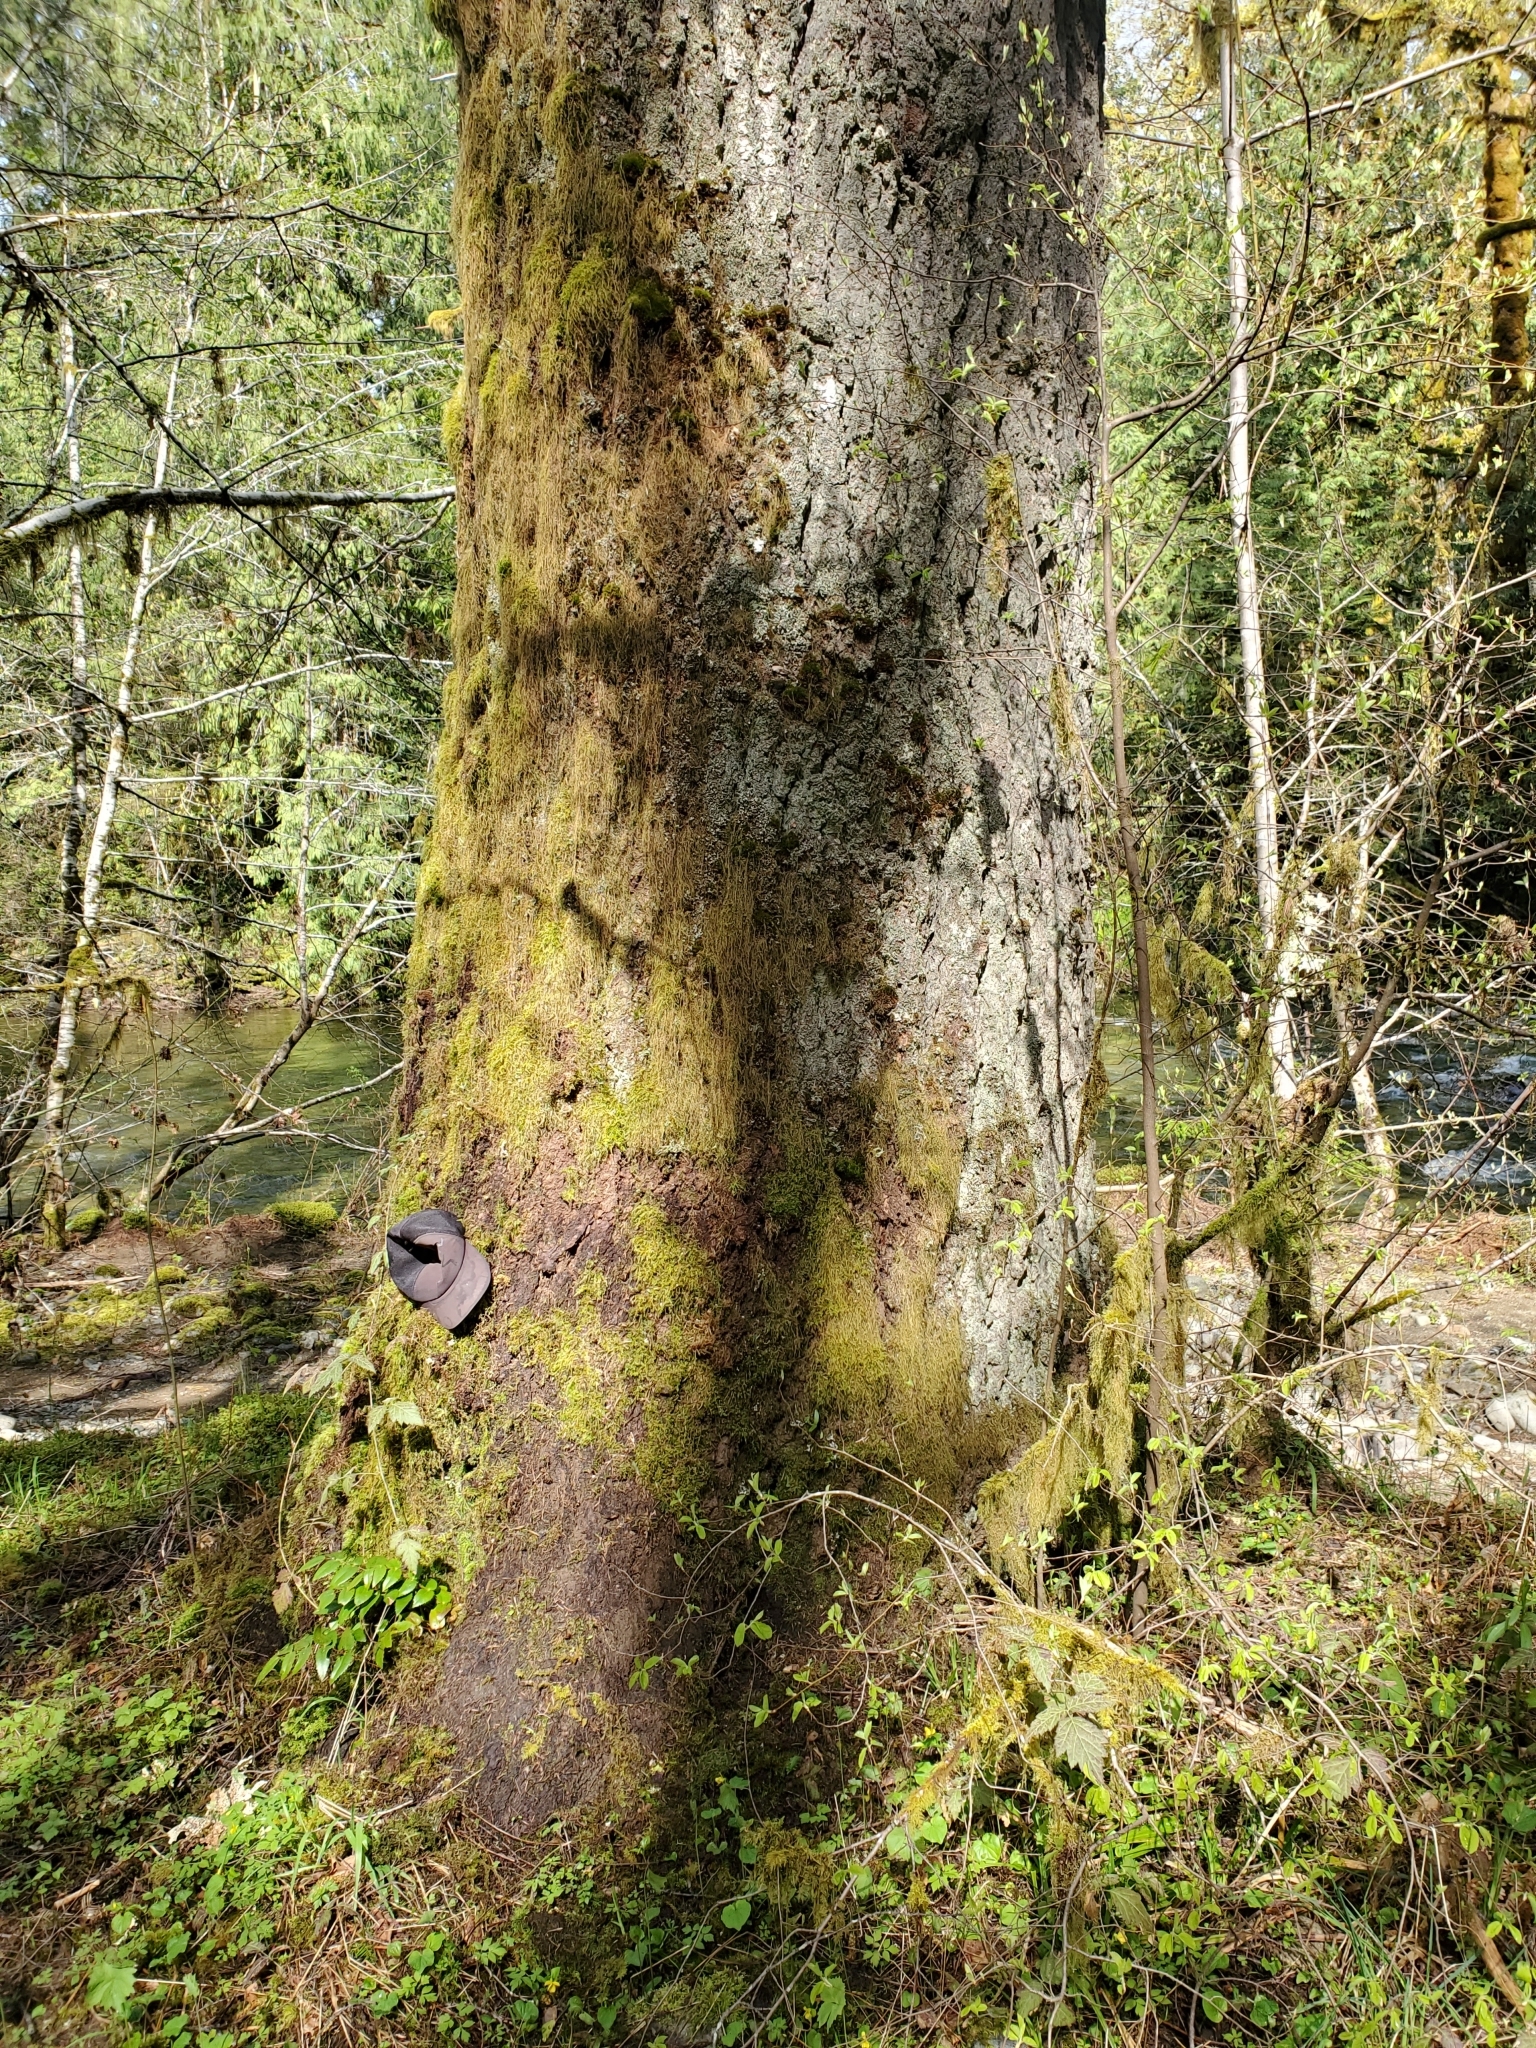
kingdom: Plantae
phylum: Tracheophyta
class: Pinopsida
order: Pinales
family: Pinaceae
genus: Abies
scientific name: Abies grandis
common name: Giant fir
